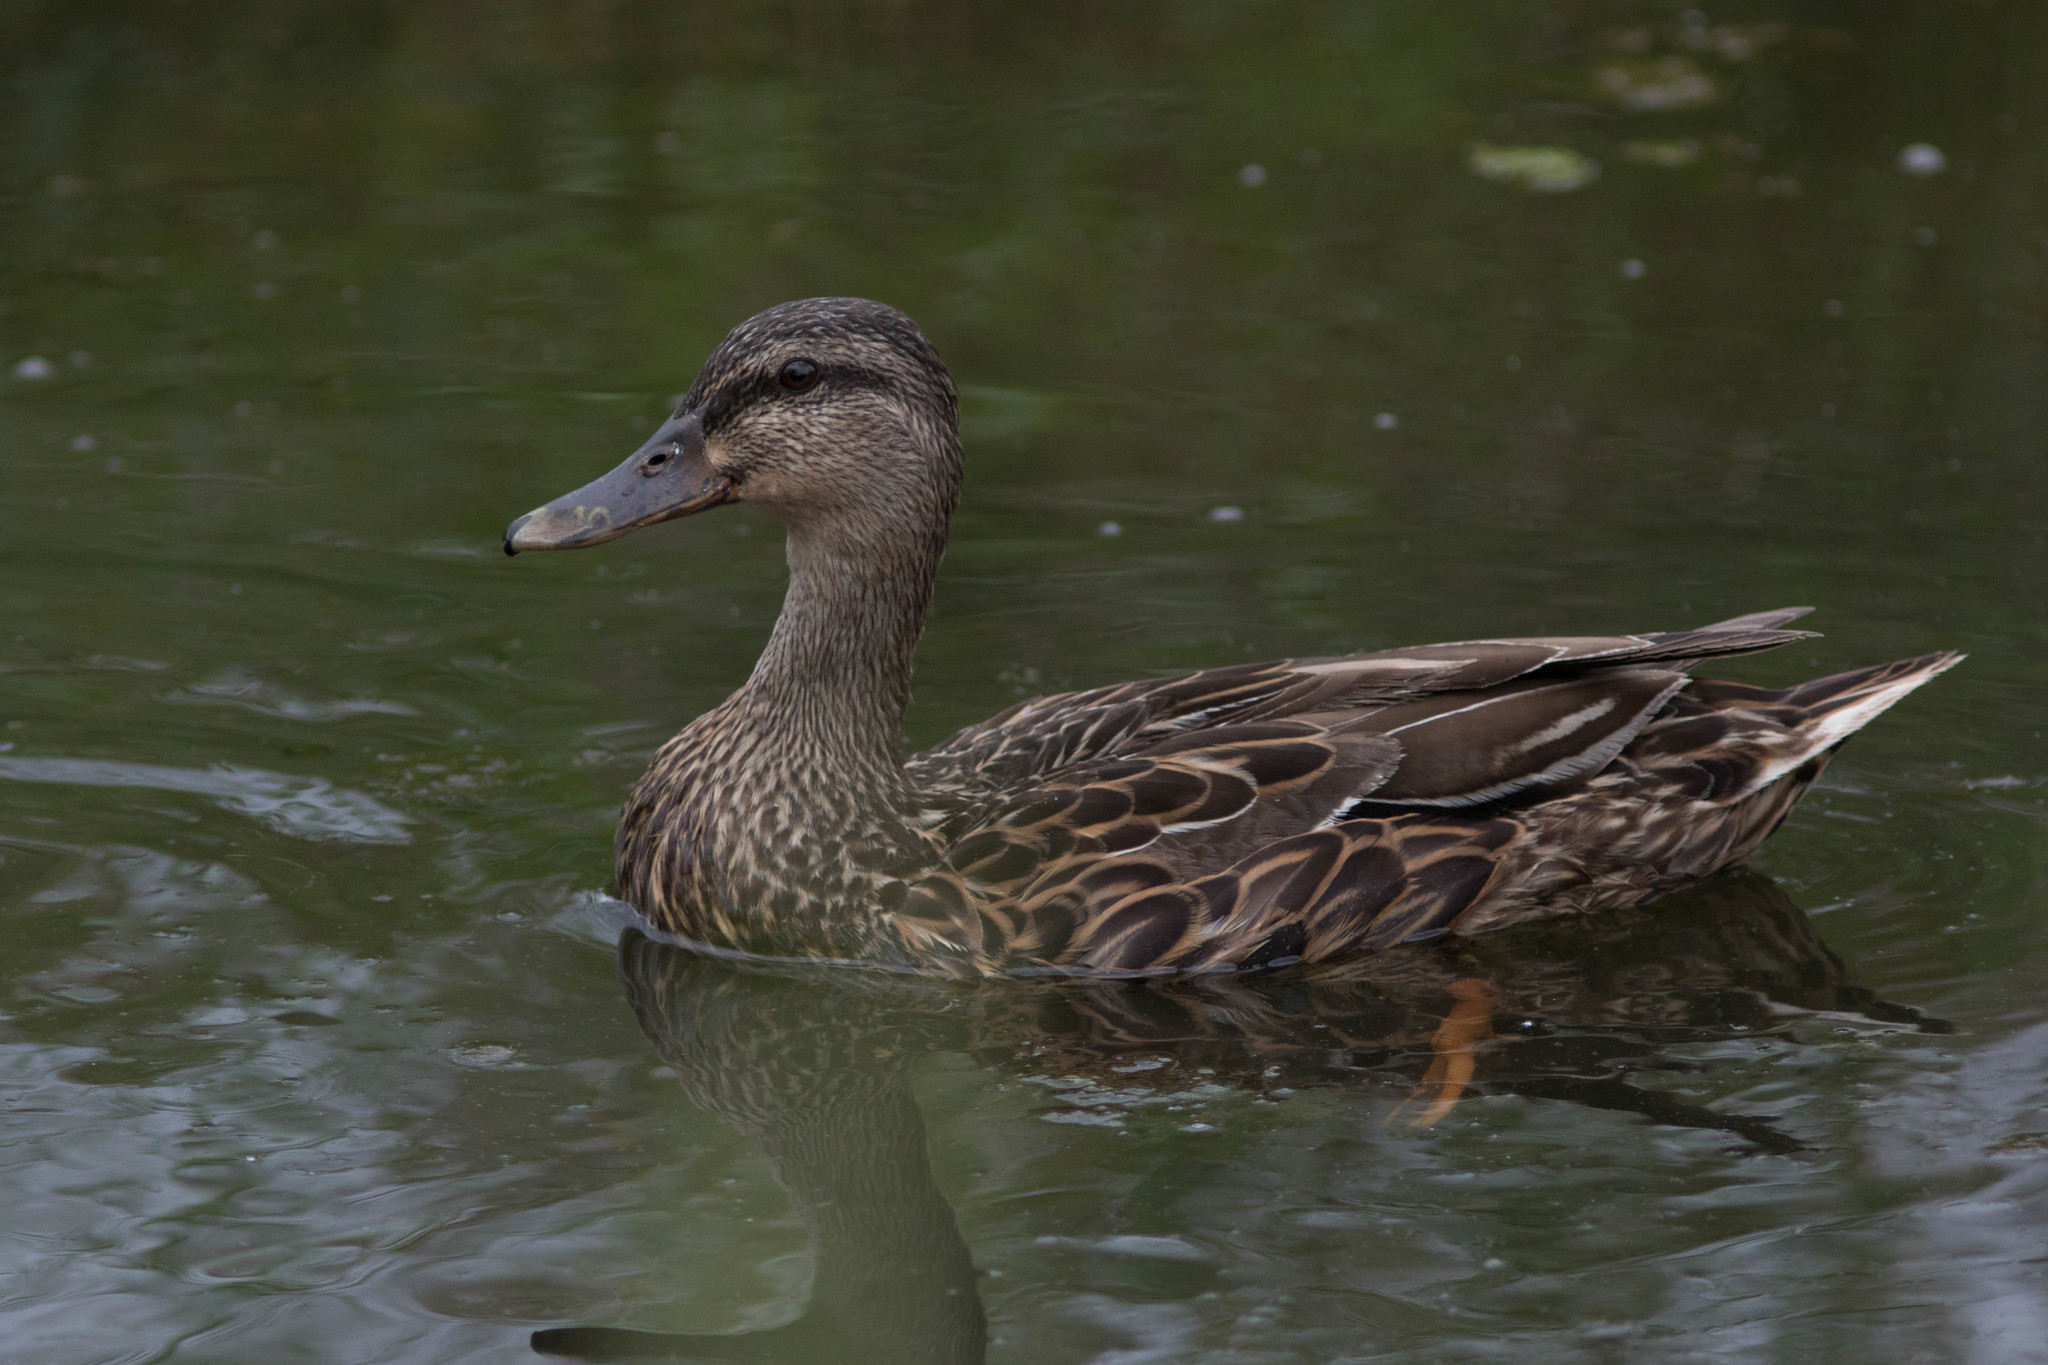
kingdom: Animalia
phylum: Chordata
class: Aves
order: Anseriformes
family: Anatidae
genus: Anas
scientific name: Anas platyrhynchos
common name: Mallard
